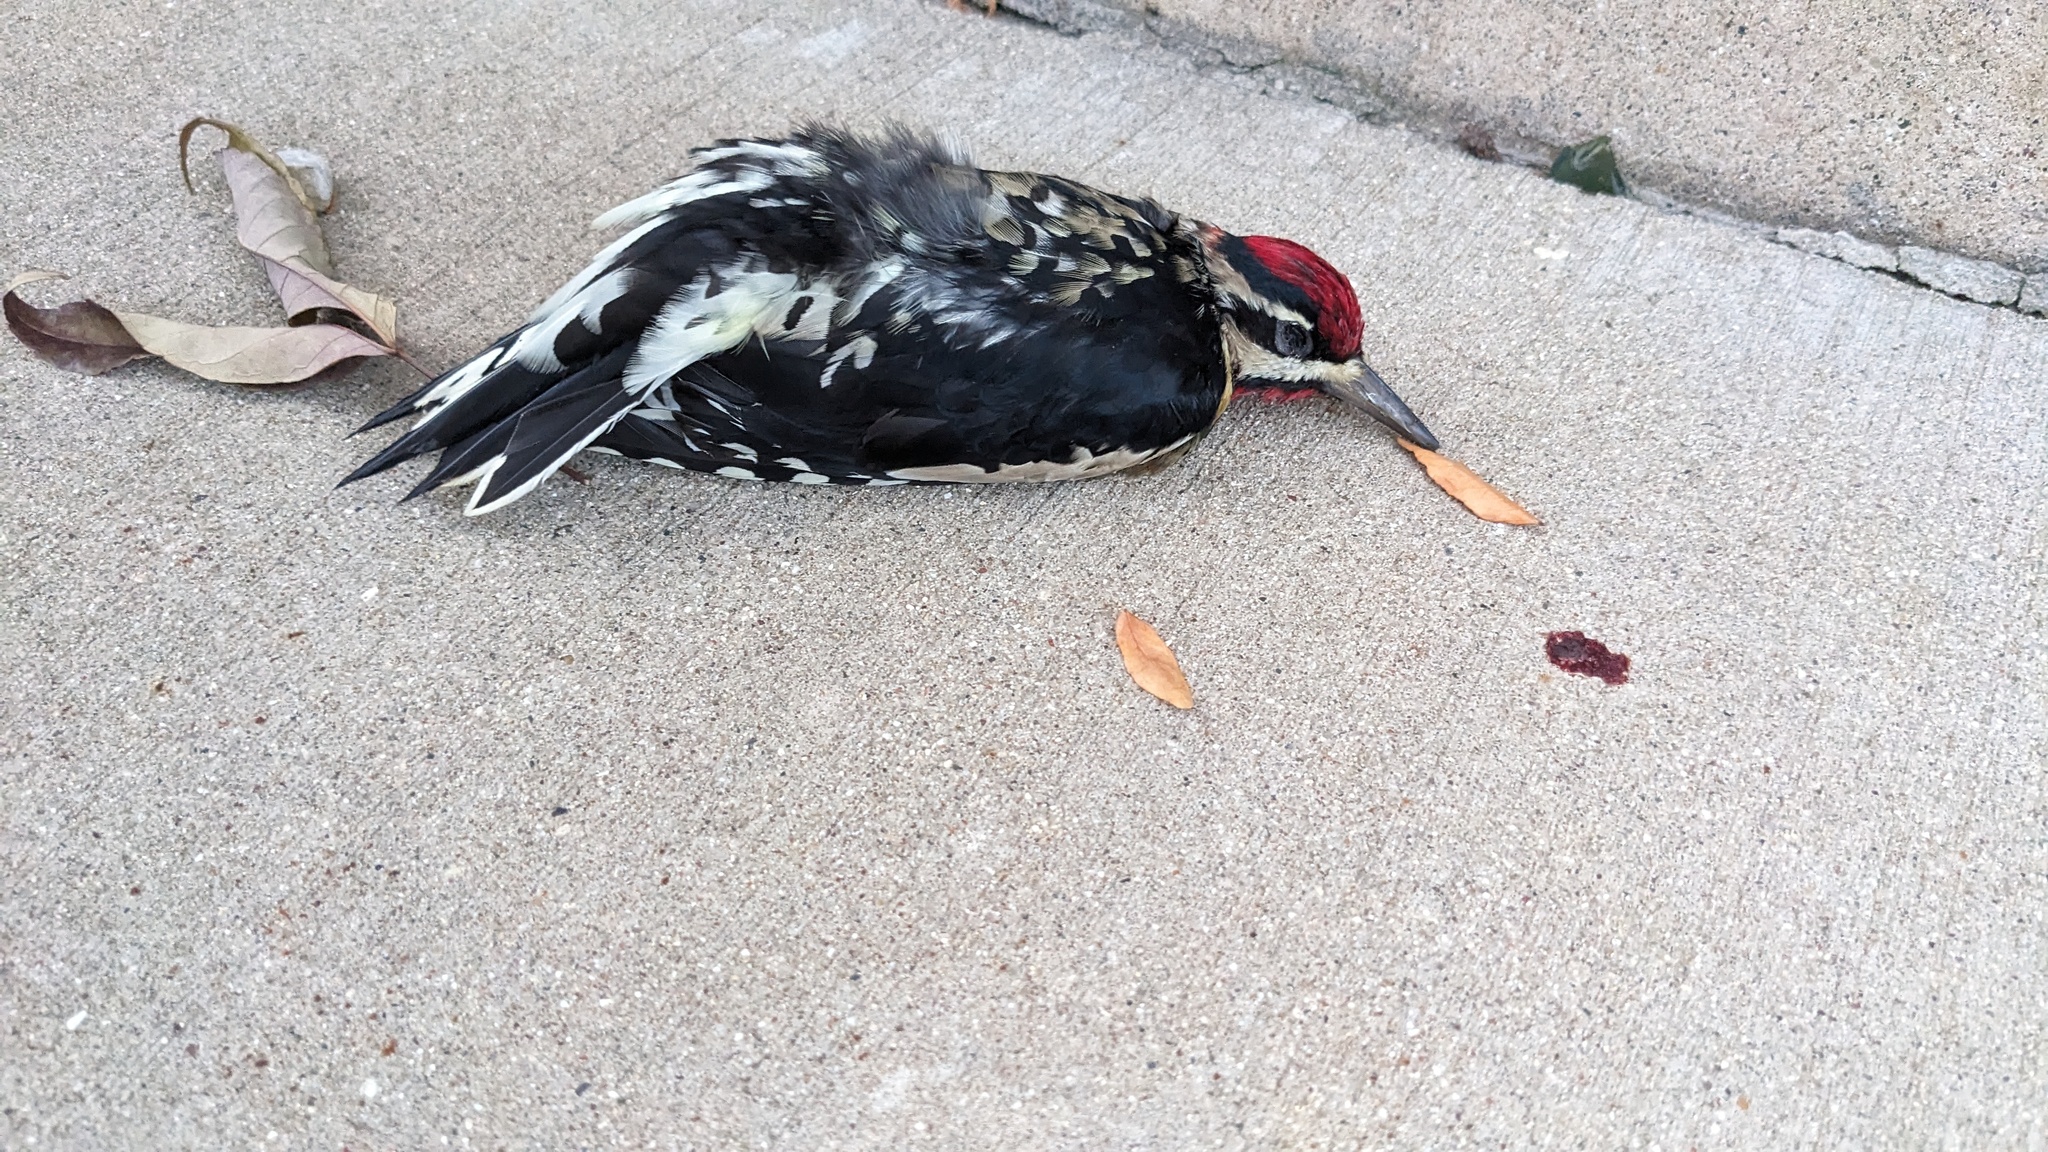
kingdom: Animalia
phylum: Chordata
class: Aves
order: Piciformes
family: Picidae
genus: Sphyrapicus
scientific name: Sphyrapicus varius
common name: Yellow-bellied sapsucker
